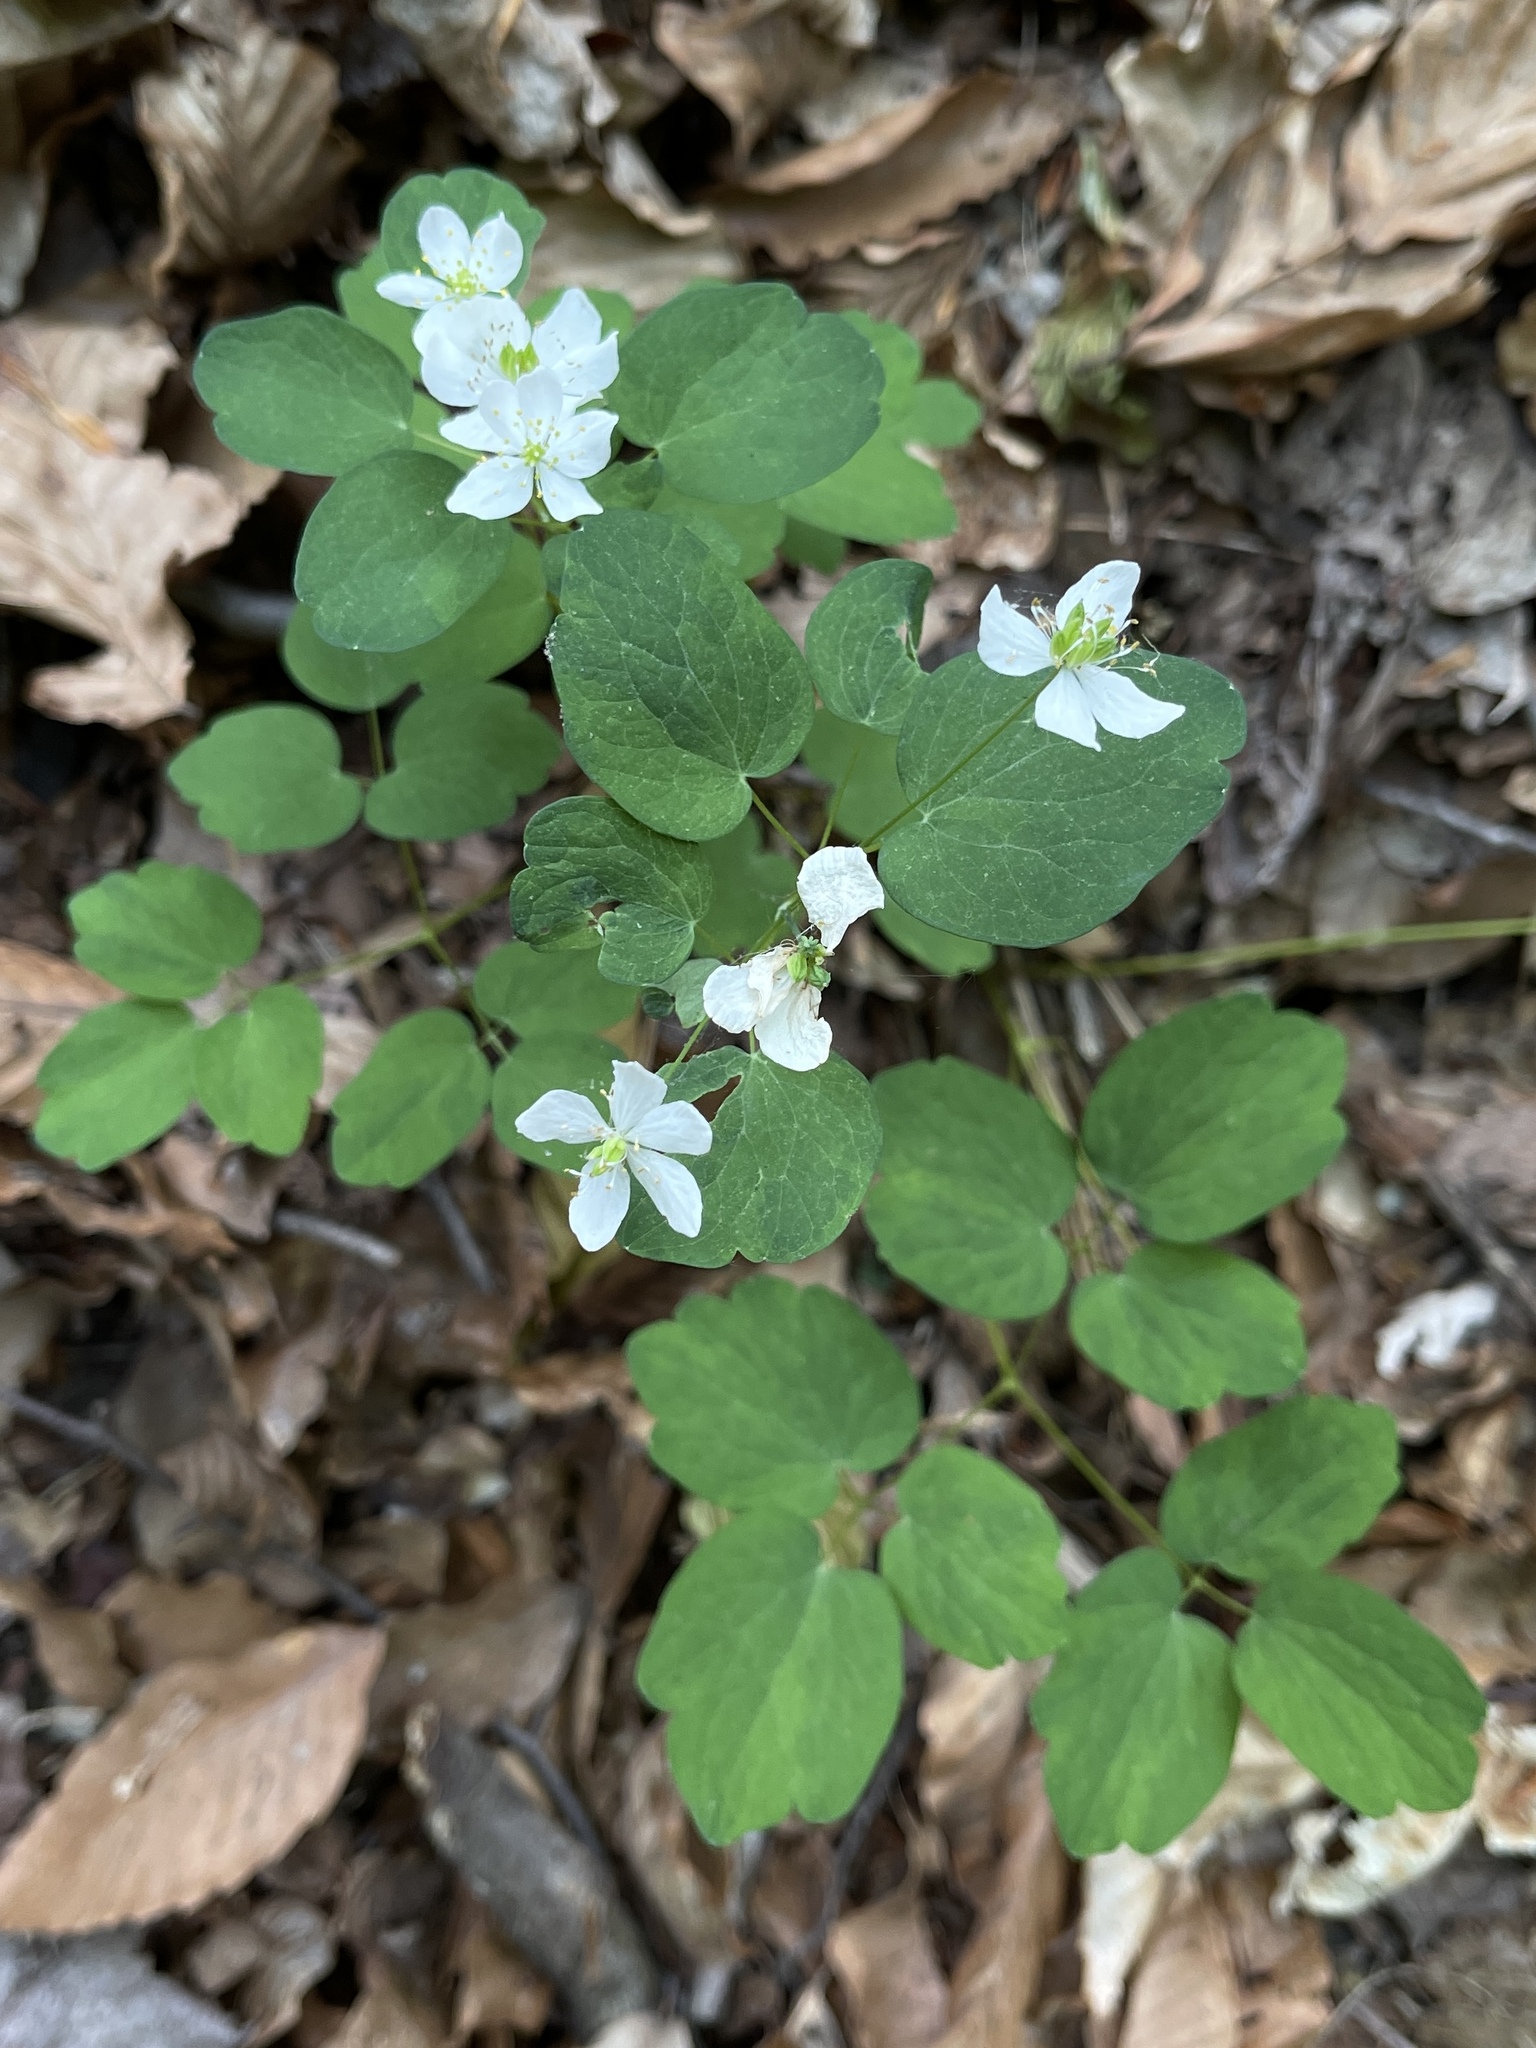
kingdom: Plantae
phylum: Tracheophyta
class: Magnoliopsida
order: Ranunculales
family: Ranunculaceae
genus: Thalictrum
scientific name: Thalictrum thalictroides
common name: Rue-anemone
